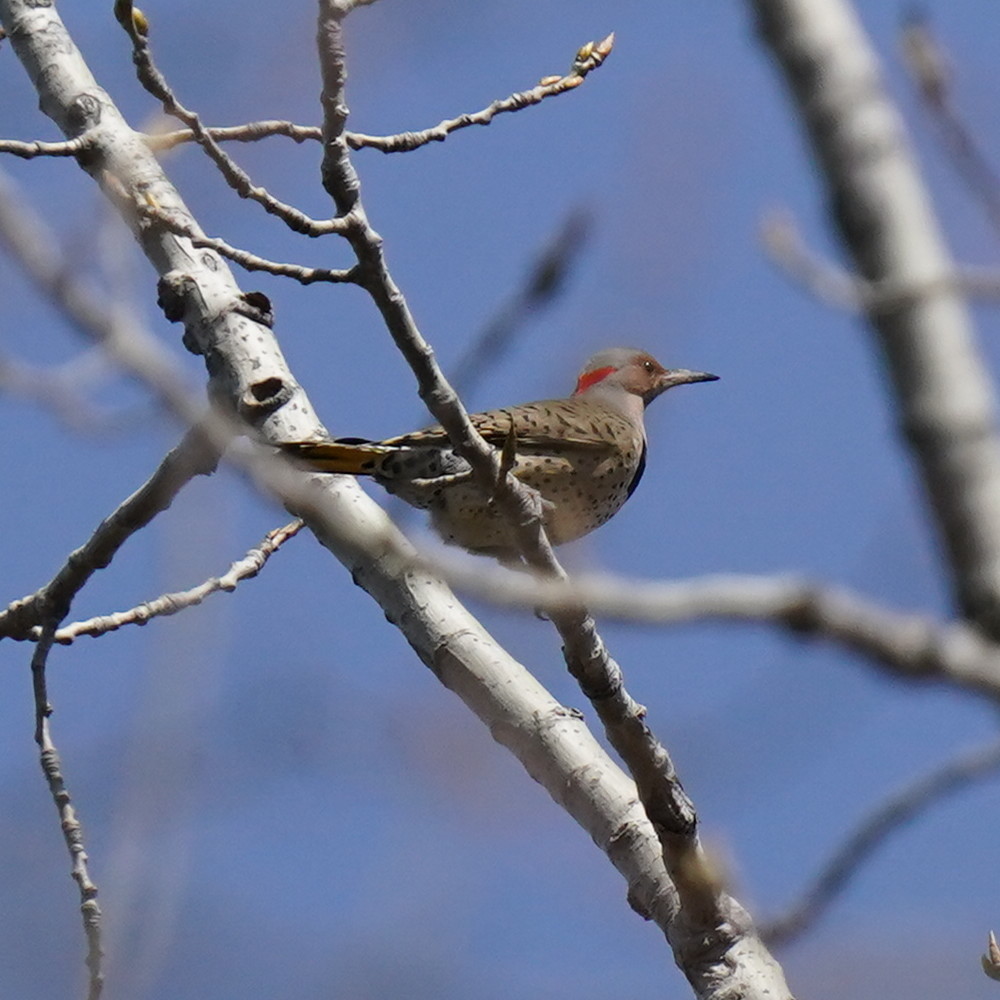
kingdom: Animalia
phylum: Chordata
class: Aves
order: Piciformes
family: Picidae
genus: Colaptes
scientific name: Colaptes auratus
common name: Northern flicker
